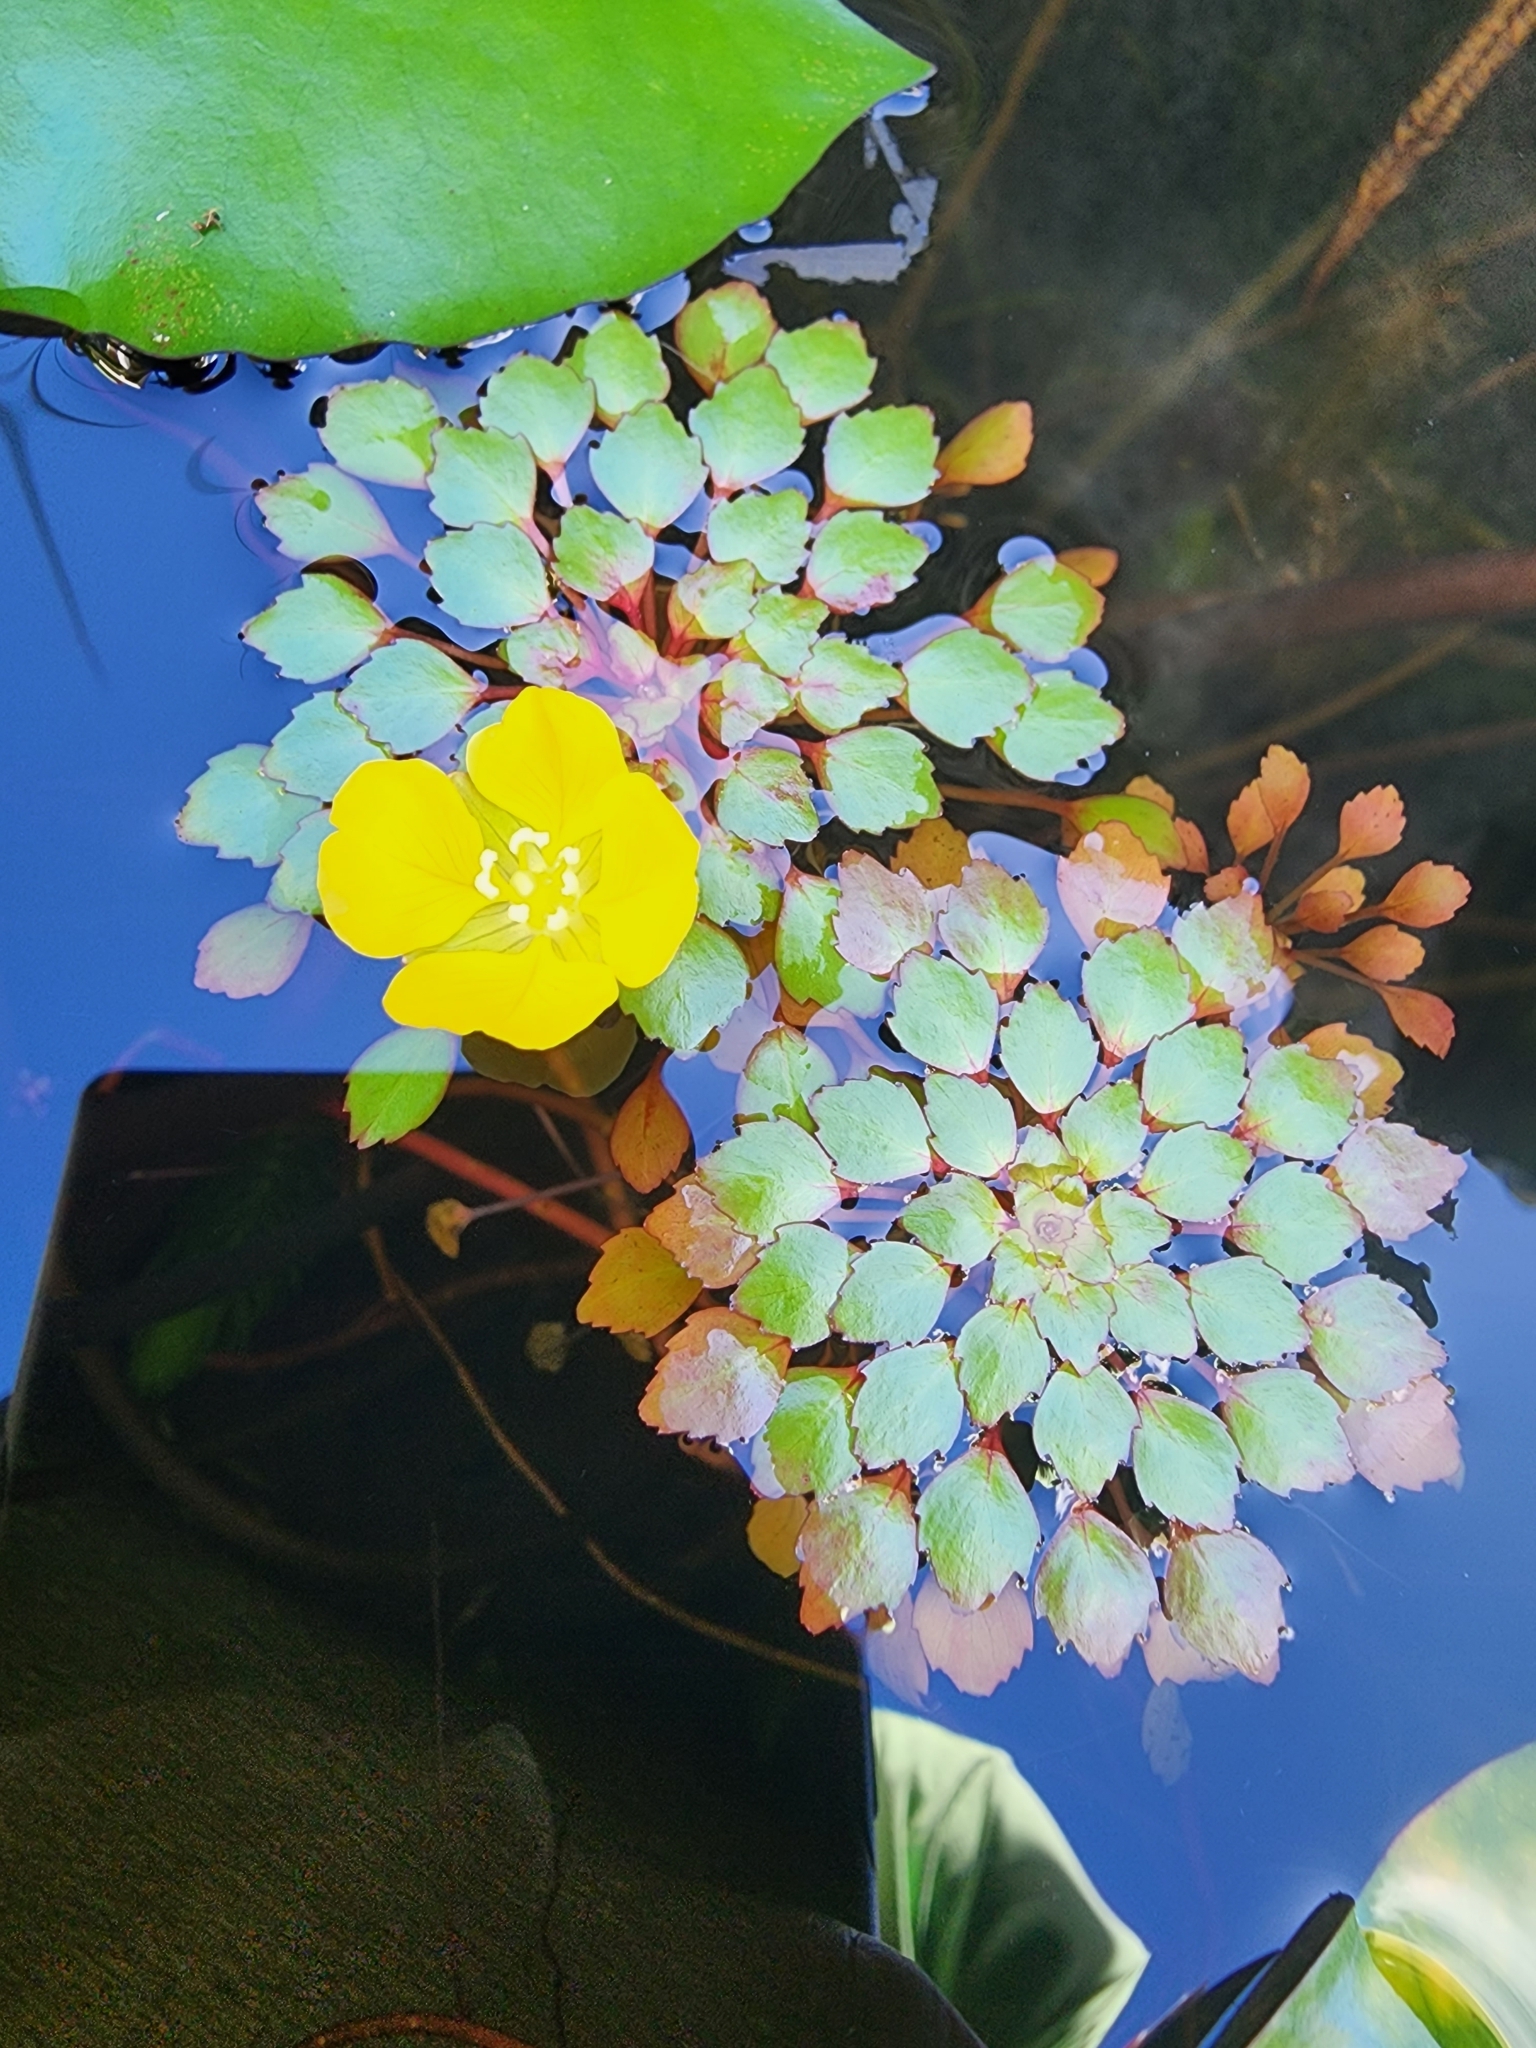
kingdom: Plantae
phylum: Tracheophyta
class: Magnoliopsida
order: Myrtales
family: Onagraceae
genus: Ludwigia
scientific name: Ludwigia sedioides
